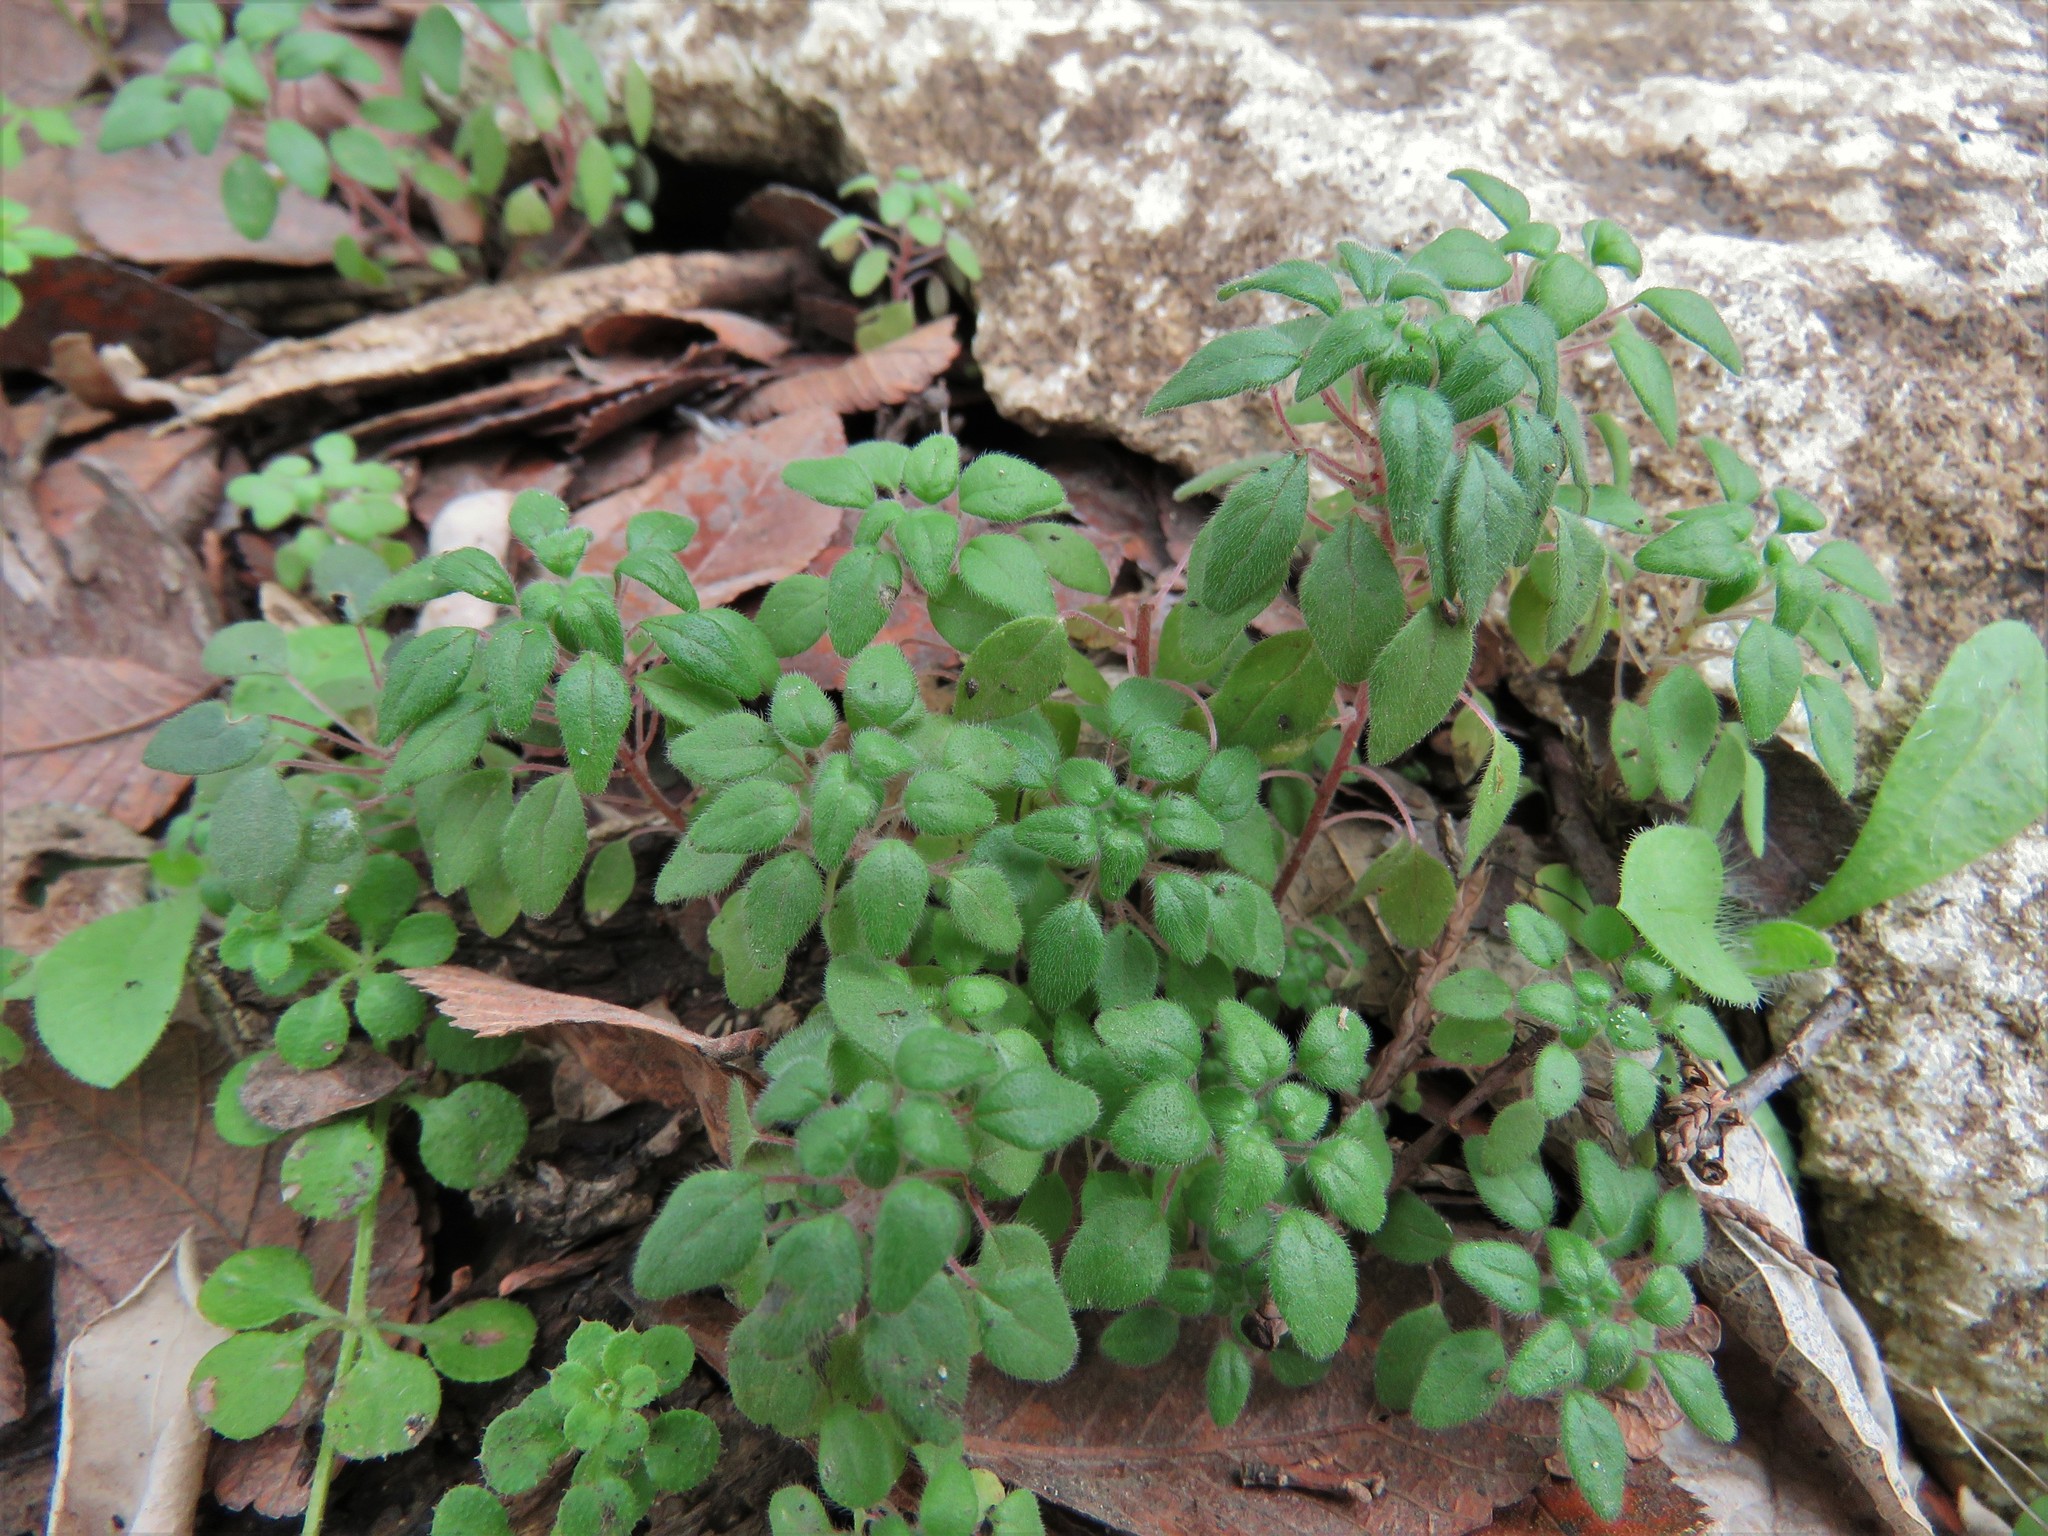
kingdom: Plantae
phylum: Tracheophyta
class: Magnoliopsida
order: Rosales
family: Urticaceae
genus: Parietaria
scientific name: Parietaria pensylvanica
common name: Pennsylvania pellitory
